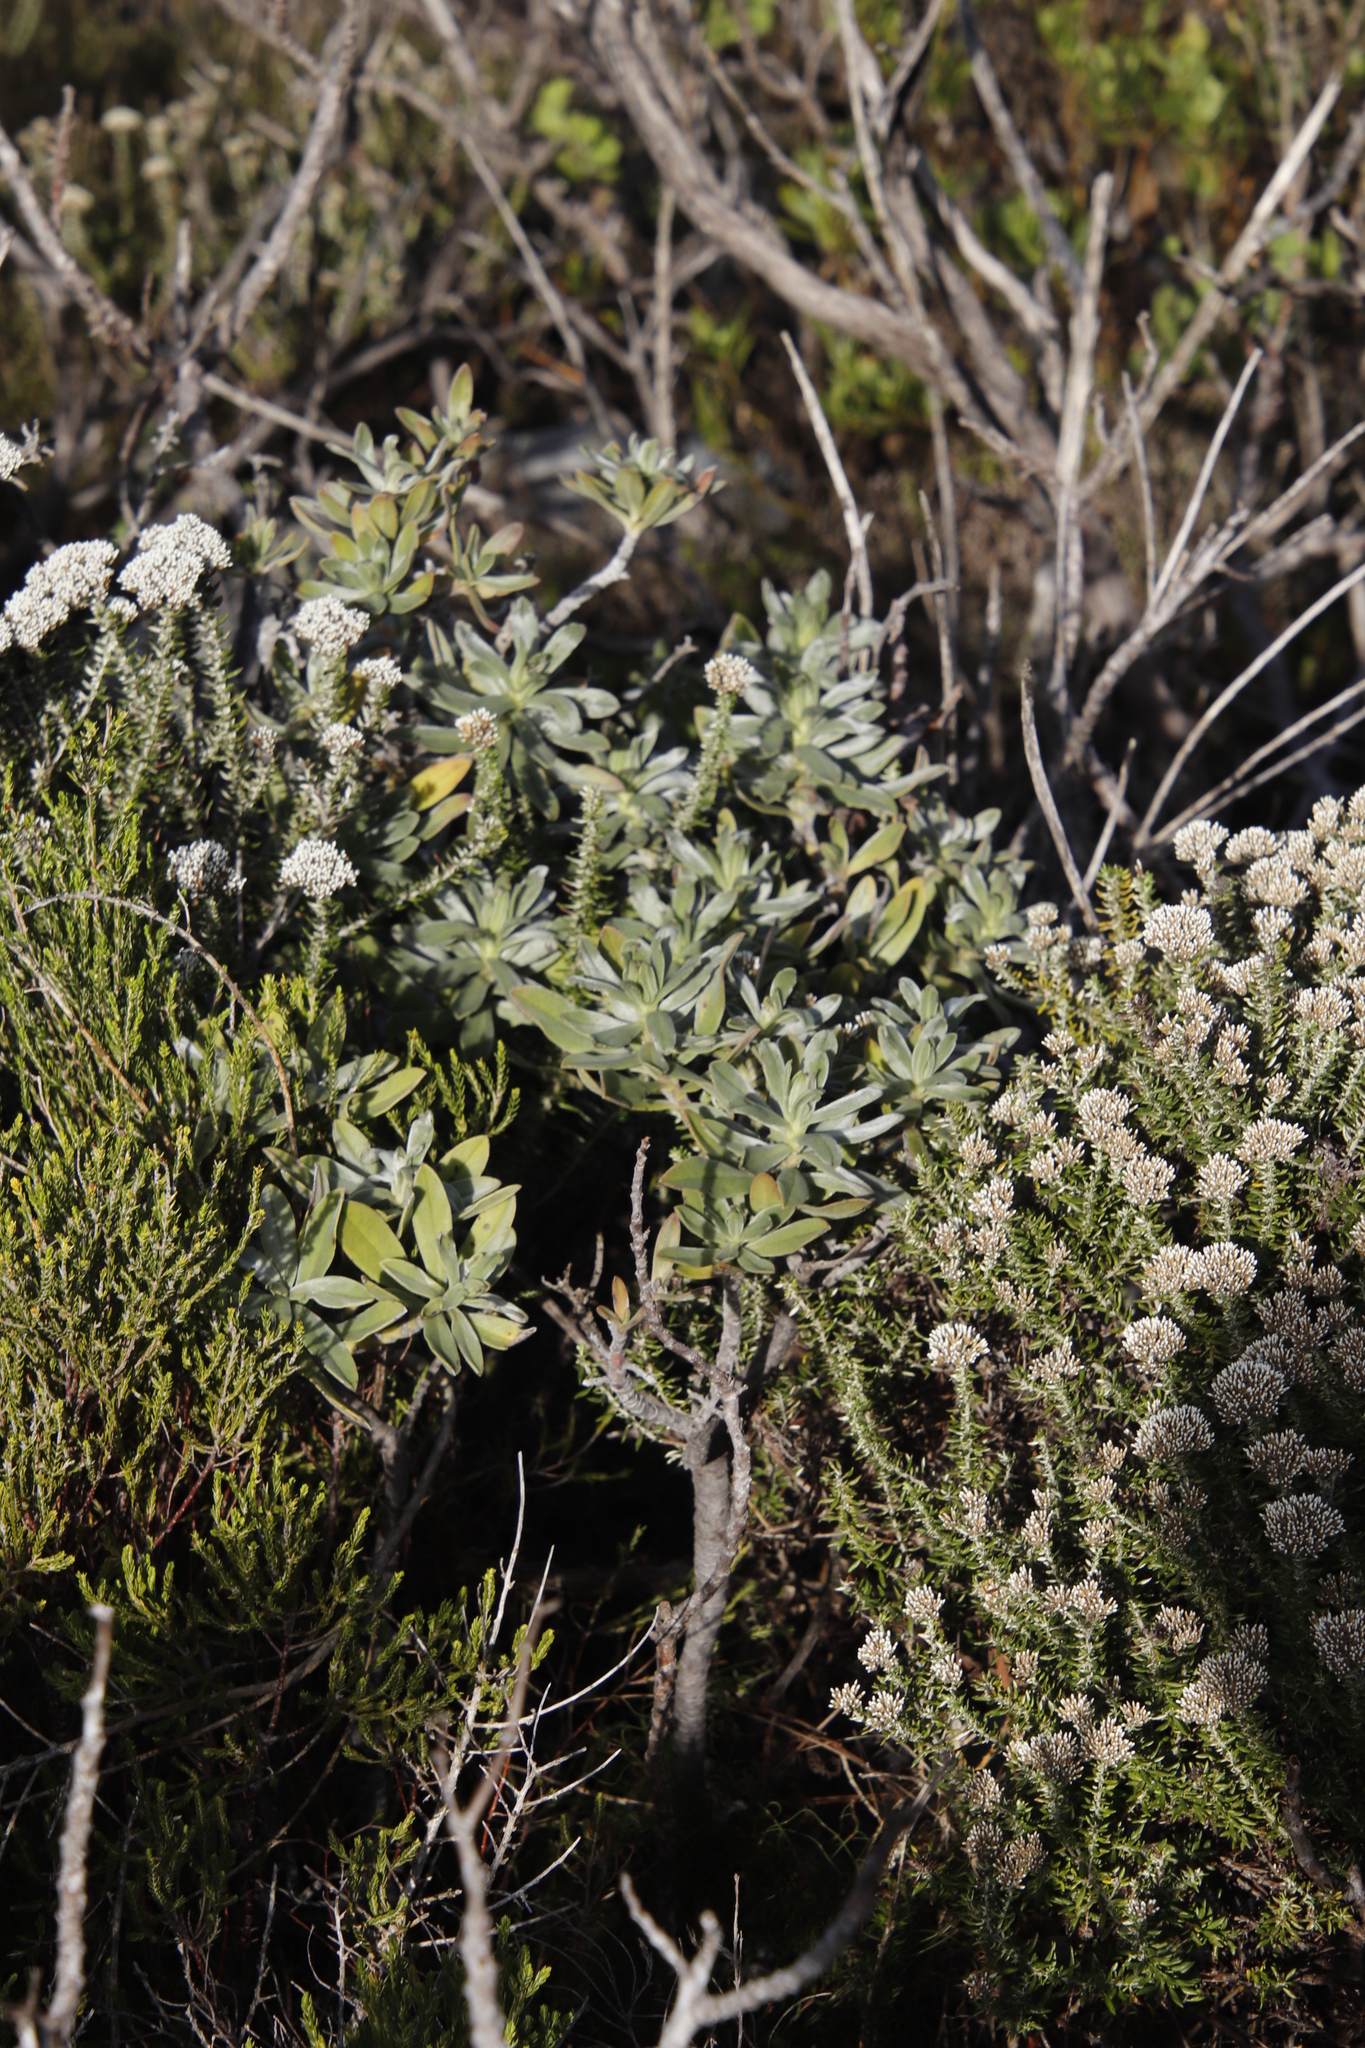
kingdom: Plantae
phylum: Tracheophyta
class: Magnoliopsida
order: Boraginales
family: Boraginaceae
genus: Lobostemon
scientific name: Lobostemon montanus
